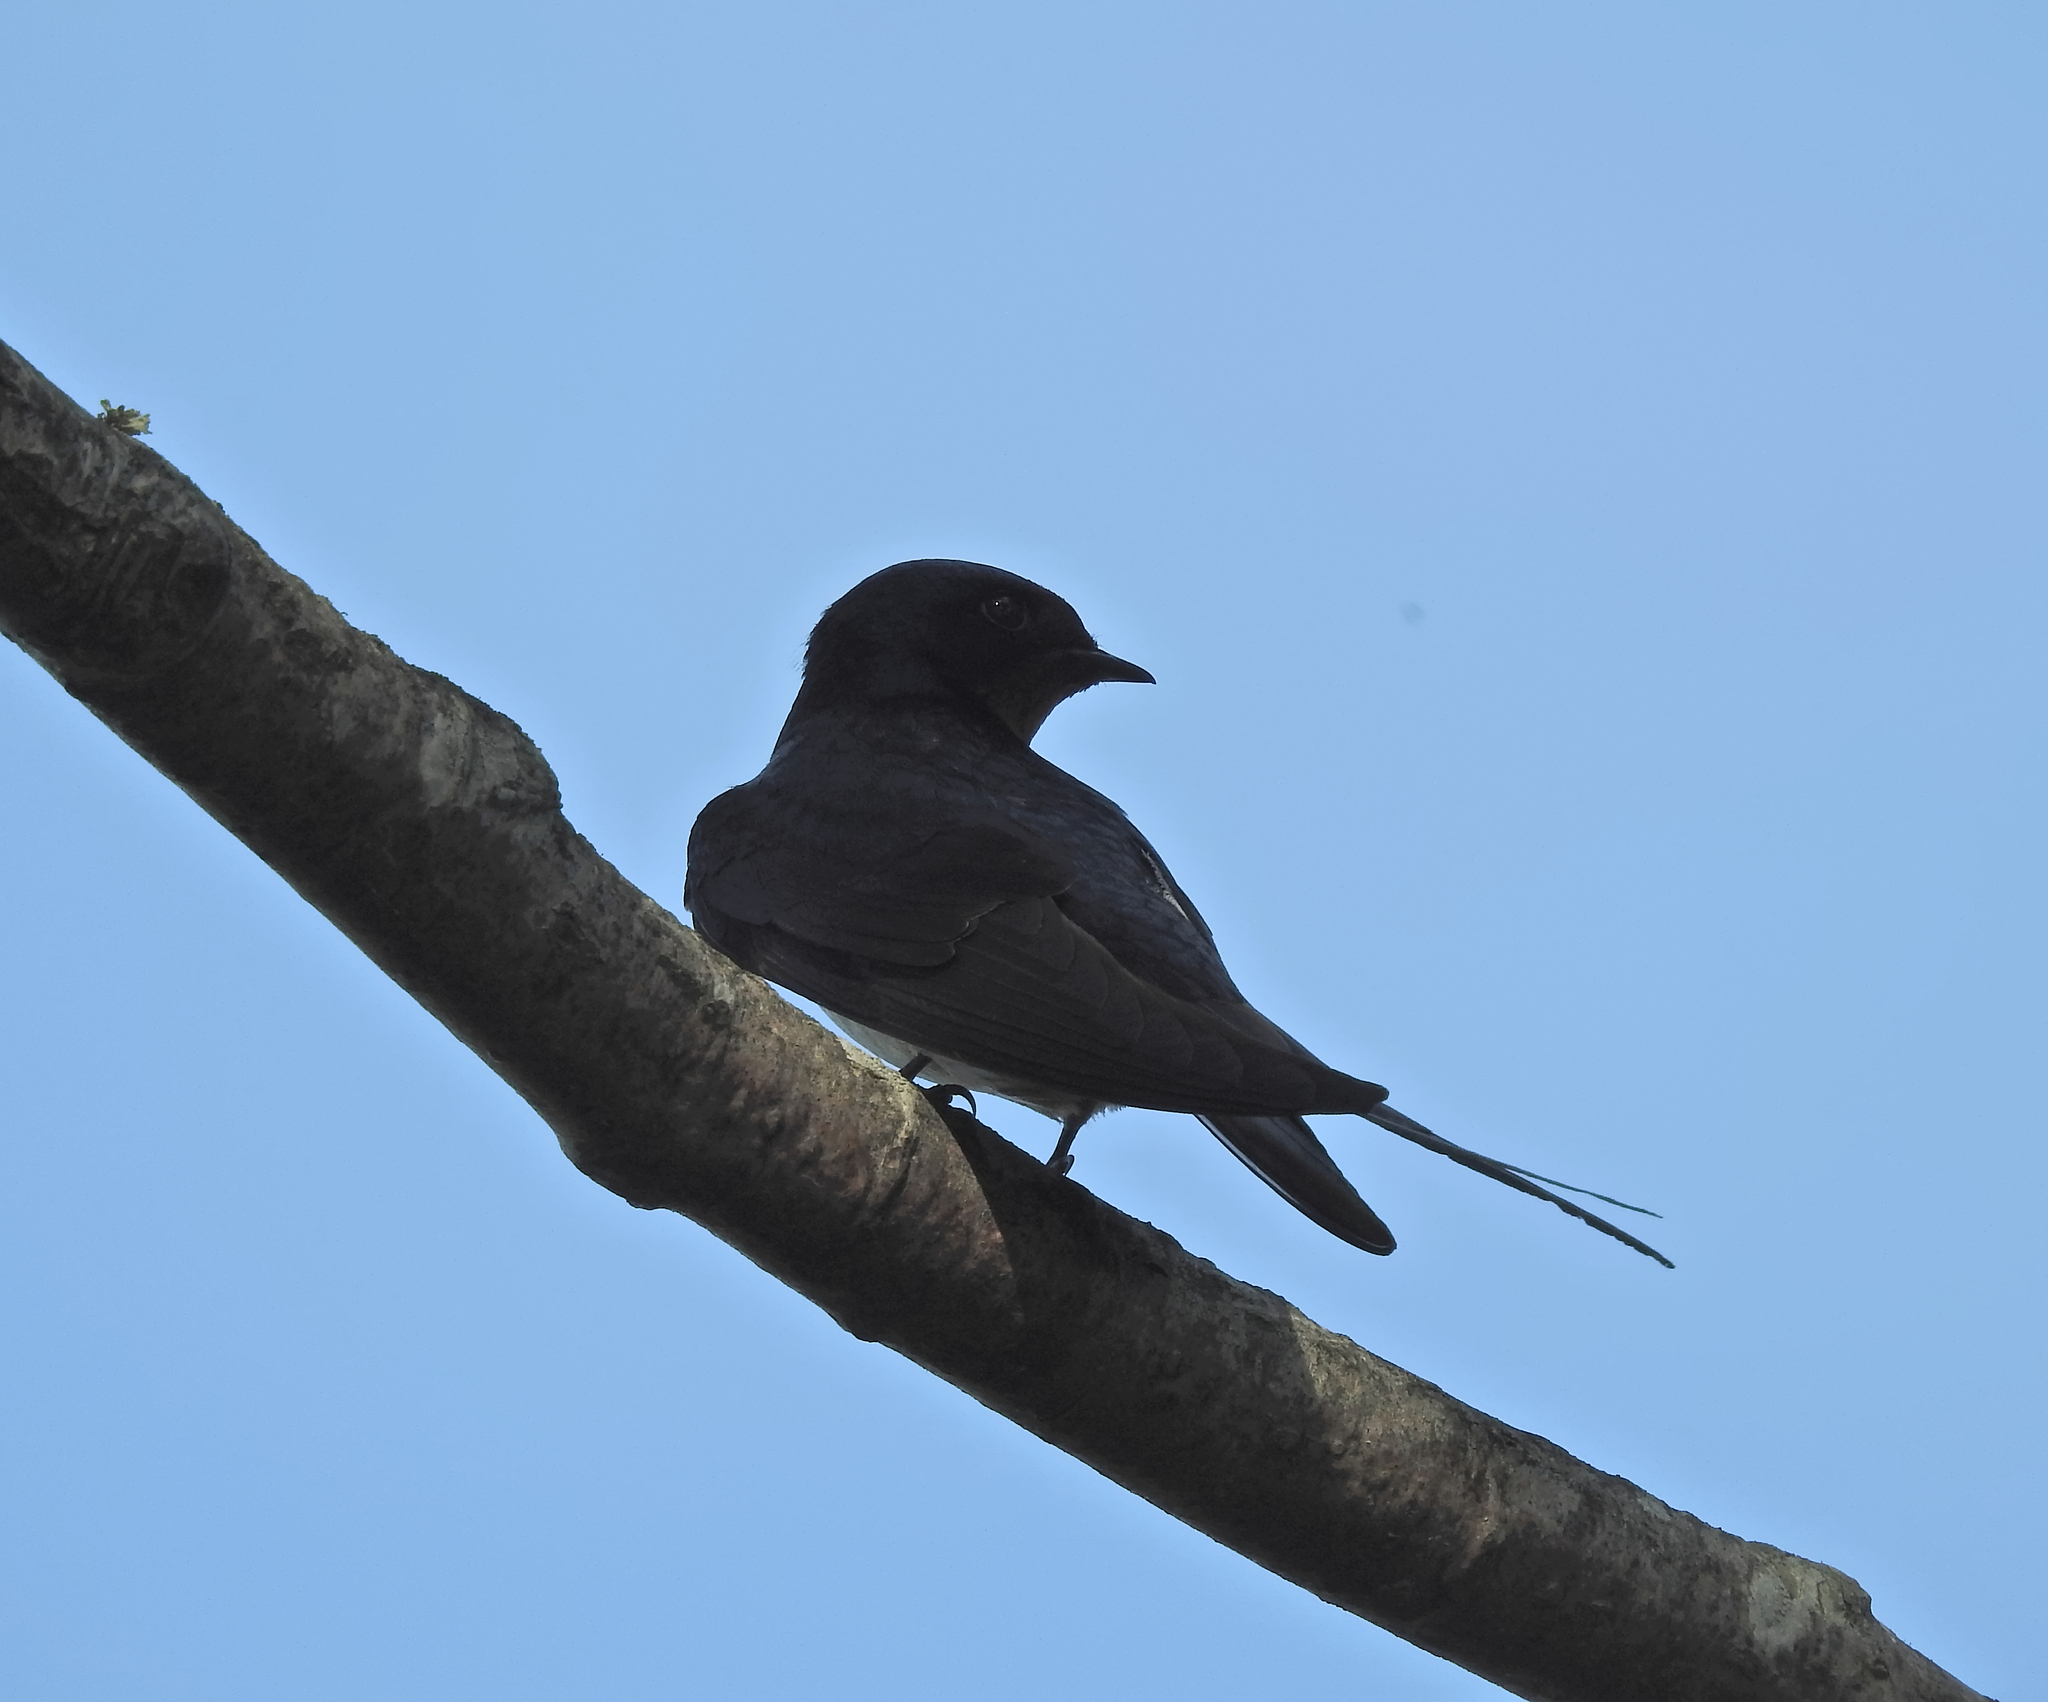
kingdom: Animalia
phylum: Chordata
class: Aves
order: Passeriformes
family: Hirundinidae
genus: Hirundo
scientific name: Hirundo rustica
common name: Barn swallow
